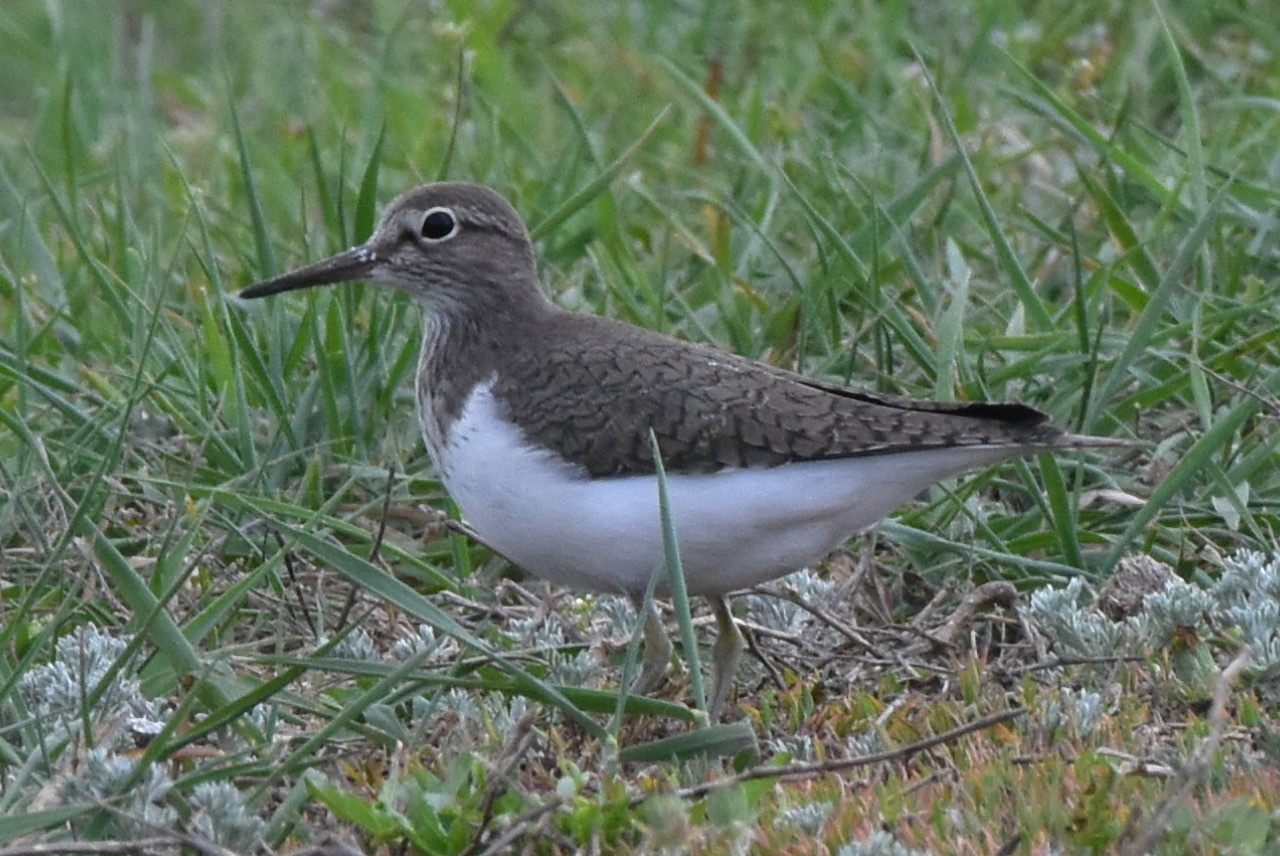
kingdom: Animalia
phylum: Chordata
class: Aves
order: Charadriiformes
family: Scolopacidae
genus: Actitis
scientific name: Actitis hypoleucos
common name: Common sandpiper
